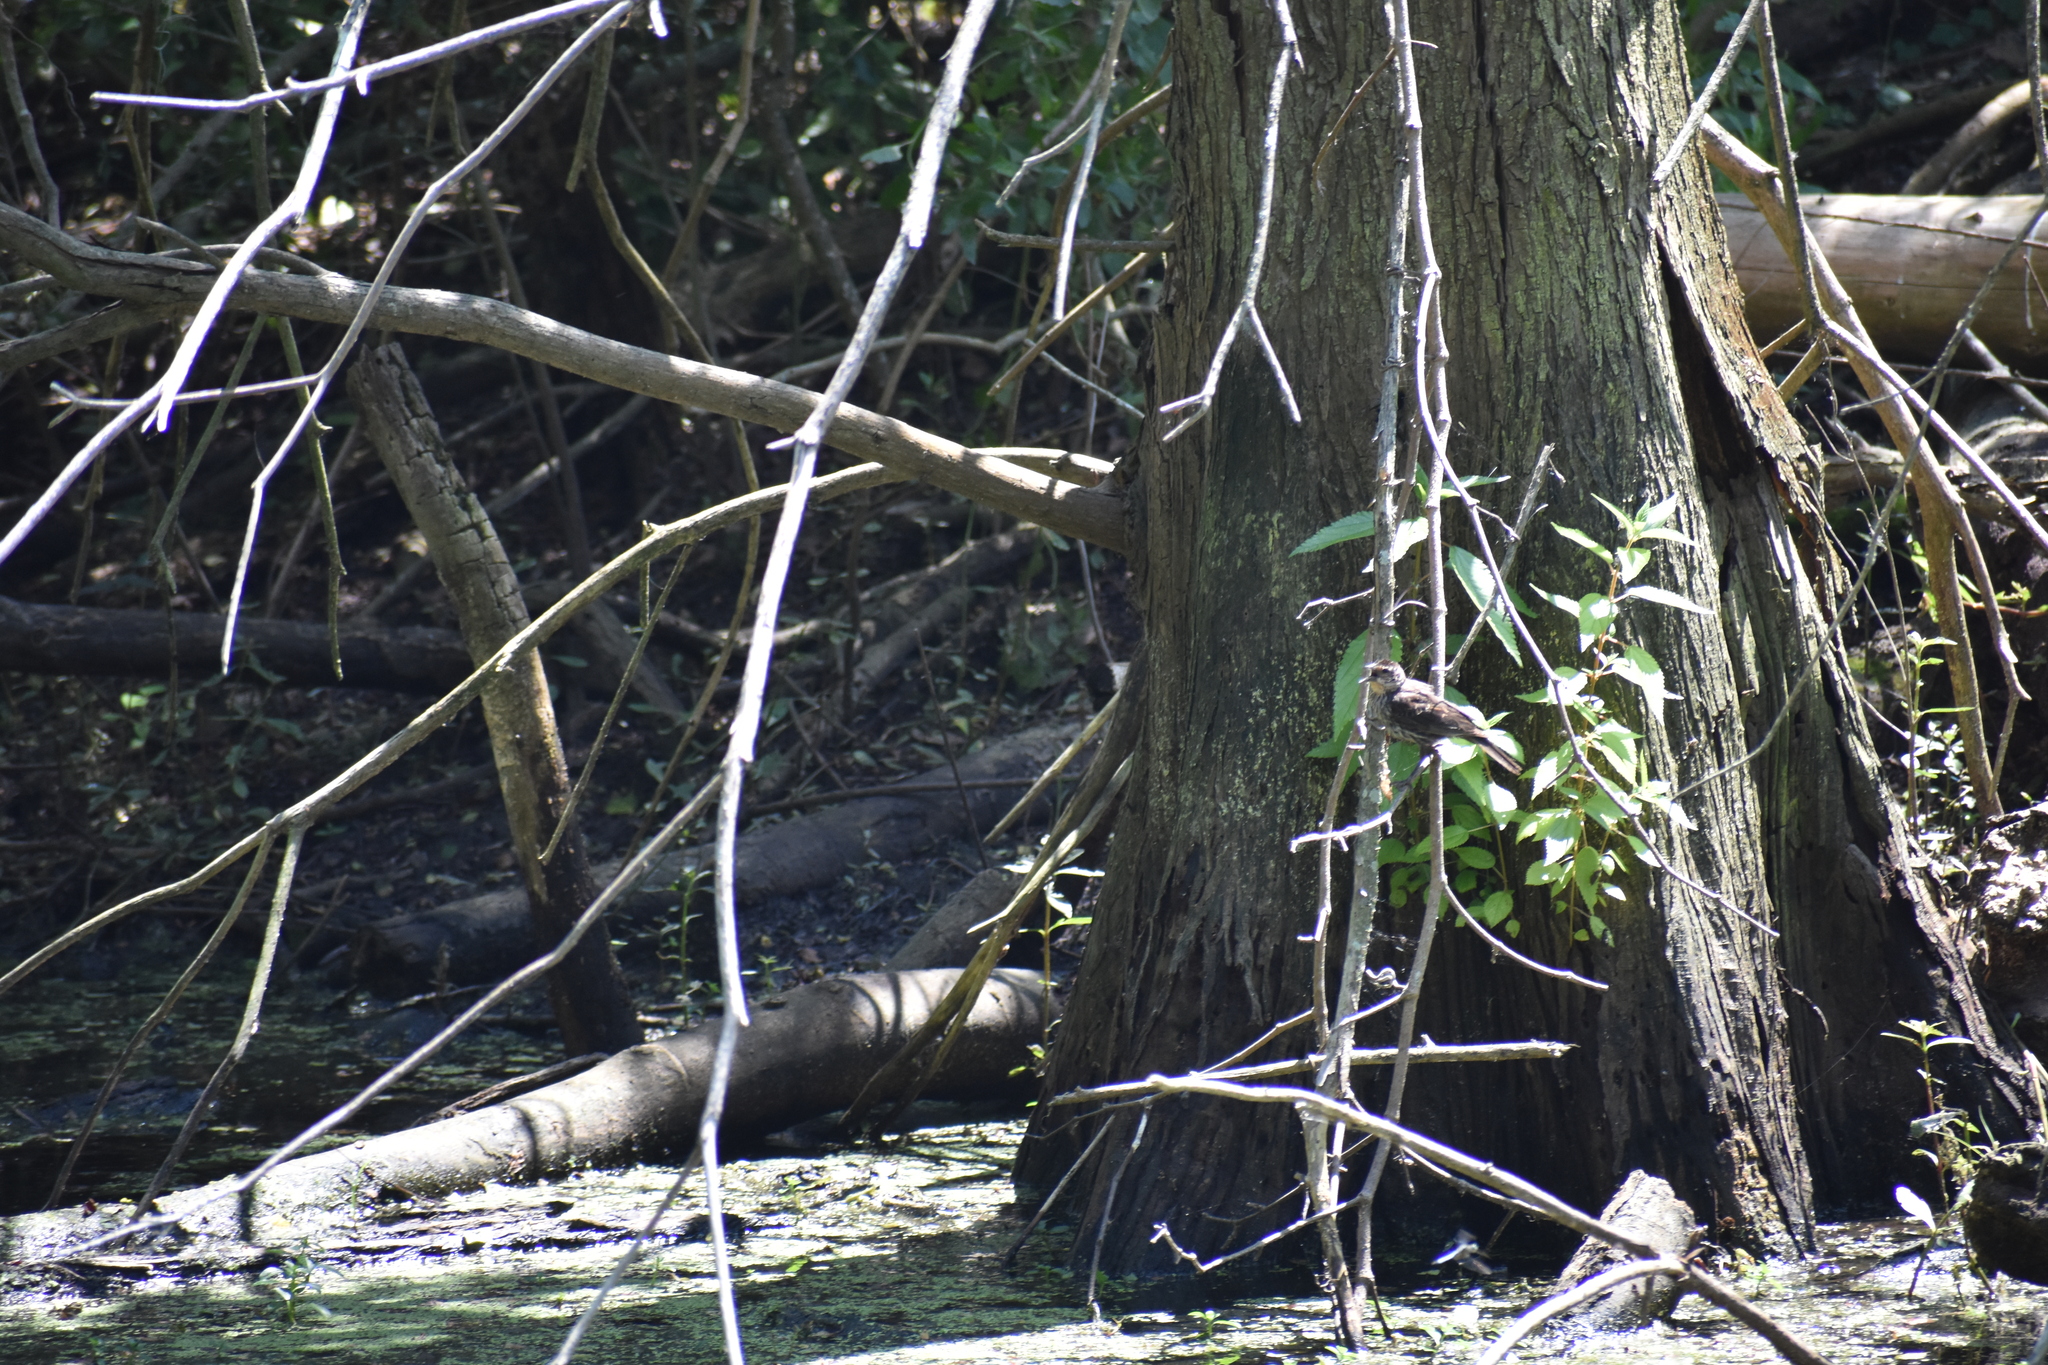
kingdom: Animalia
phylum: Chordata
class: Aves
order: Passeriformes
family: Icteridae
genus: Agelaius
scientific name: Agelaius phoeniceus
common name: Red-winged blackbird
